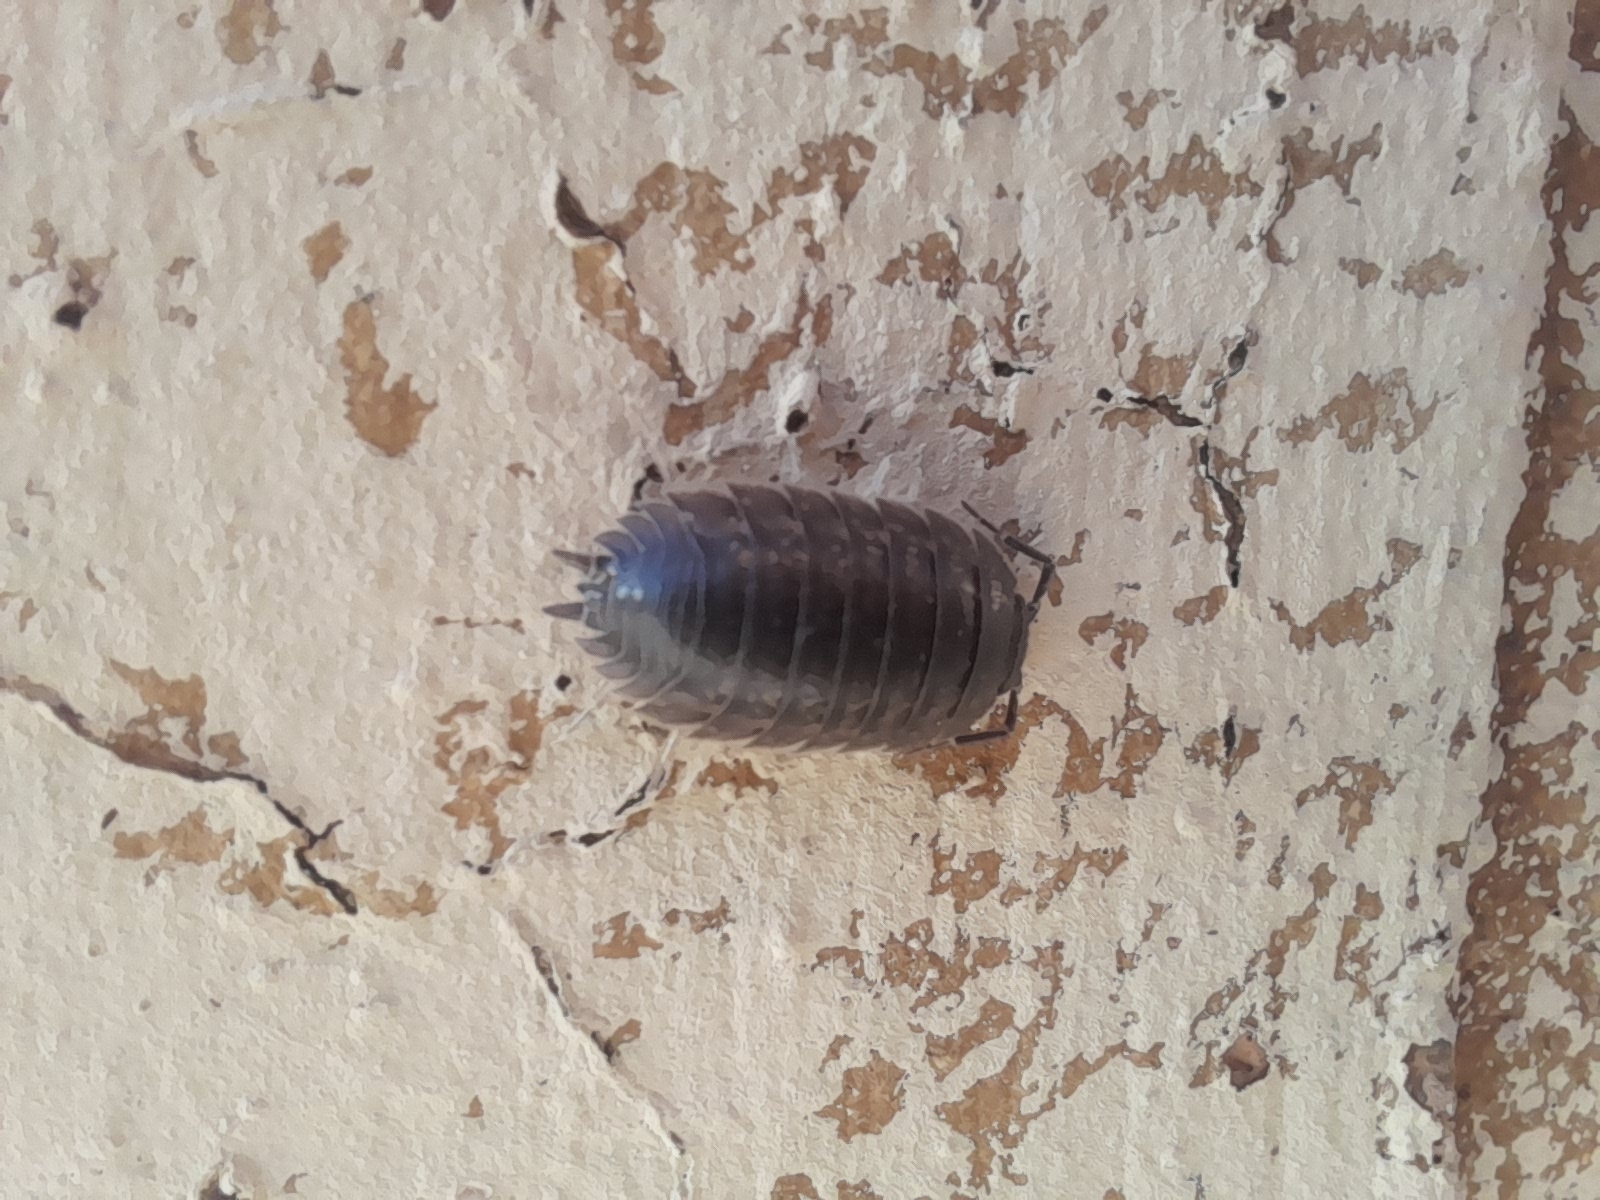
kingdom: Animalia
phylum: Arthropoda
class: Malacostraca
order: Isopoda
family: Porcellionidae
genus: Porcellio
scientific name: Porcellio laevis
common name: Swift woodlouse
